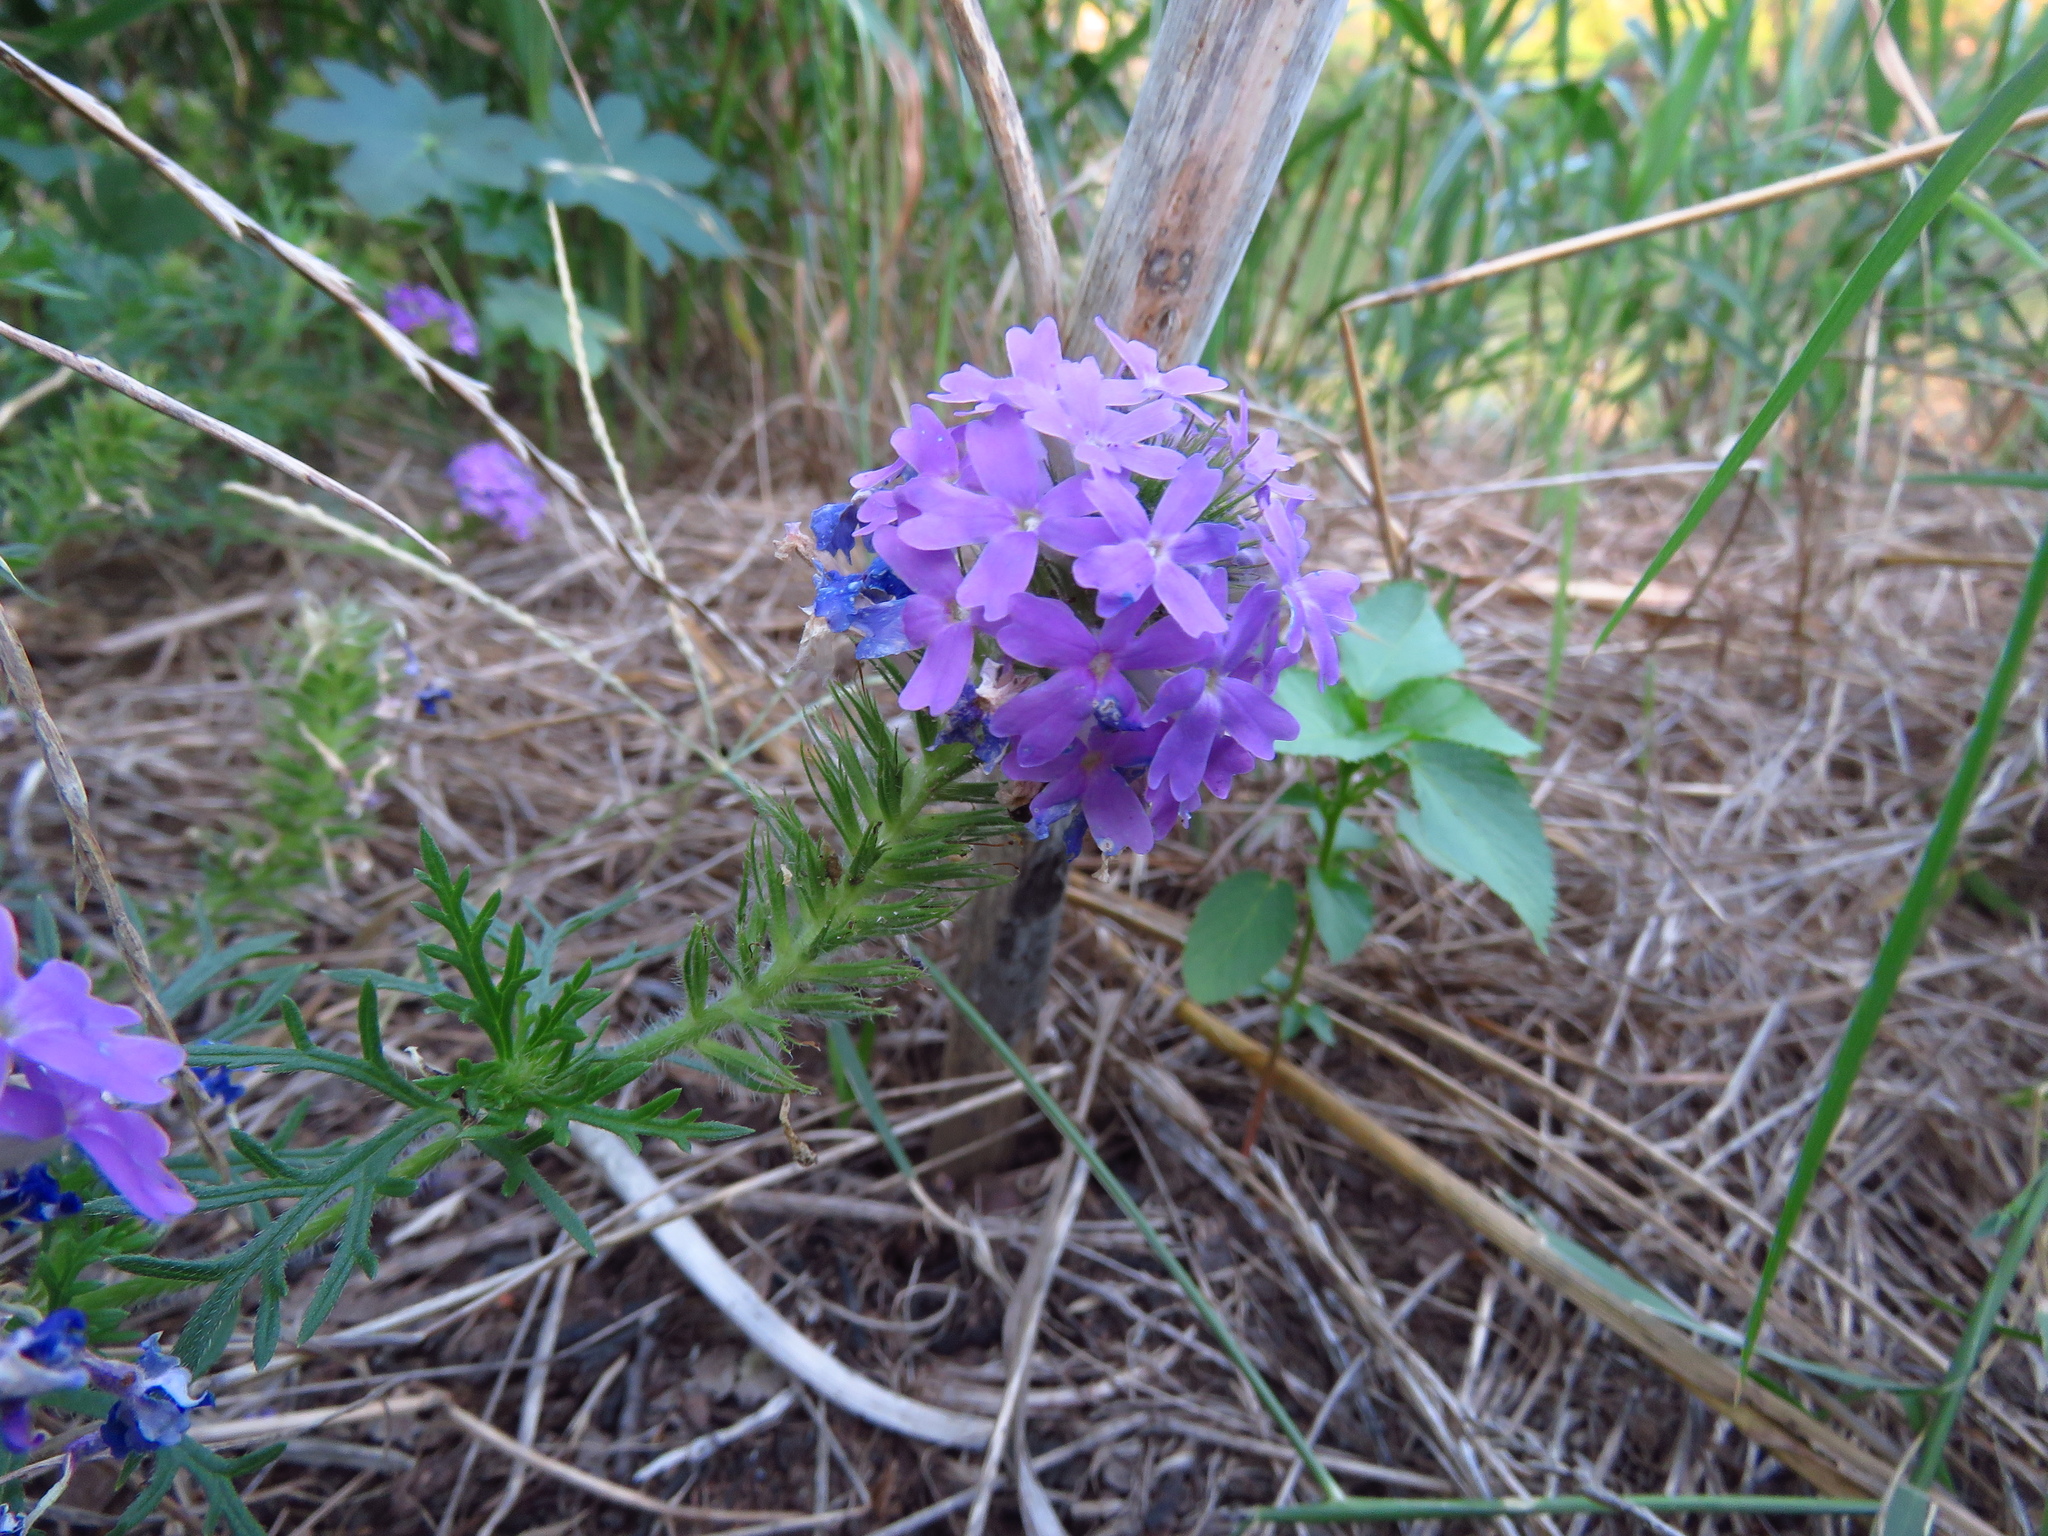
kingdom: Plantae
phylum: Tracheophyta
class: Magnoliopsida
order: Lamiales
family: Verbenaceae
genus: Verbena
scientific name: Verbena bipinnatifida
